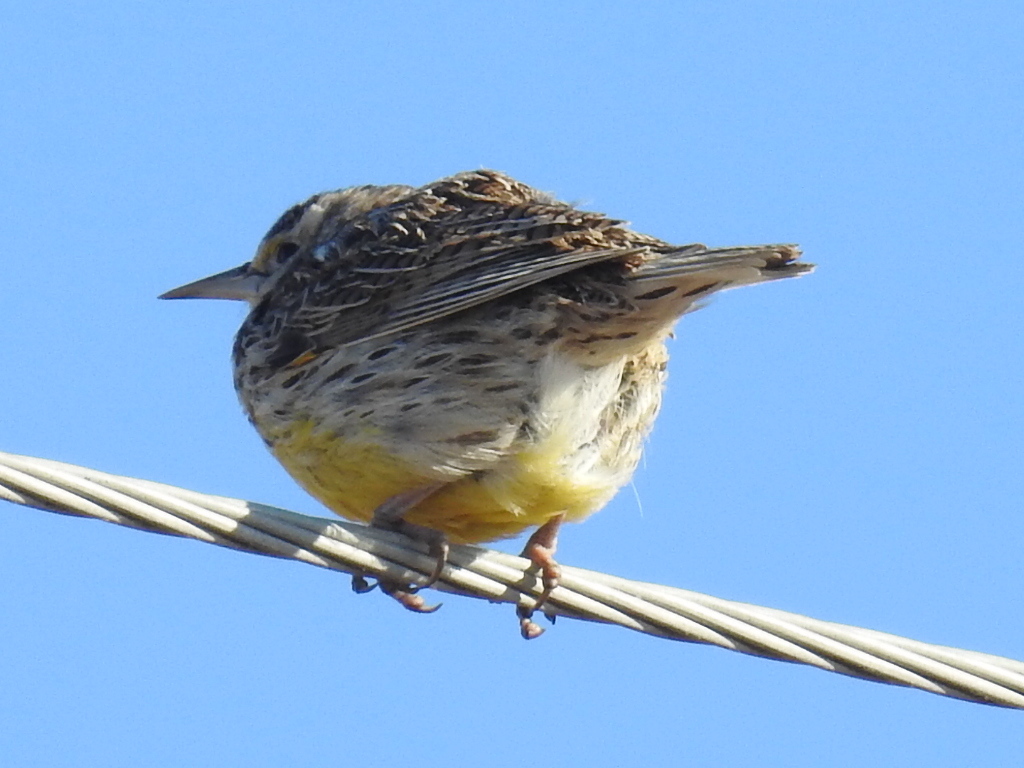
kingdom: Animalia
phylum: Chordata
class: Aves
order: Passeriformes
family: Icteridae
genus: Sturnella
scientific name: Sturnella
